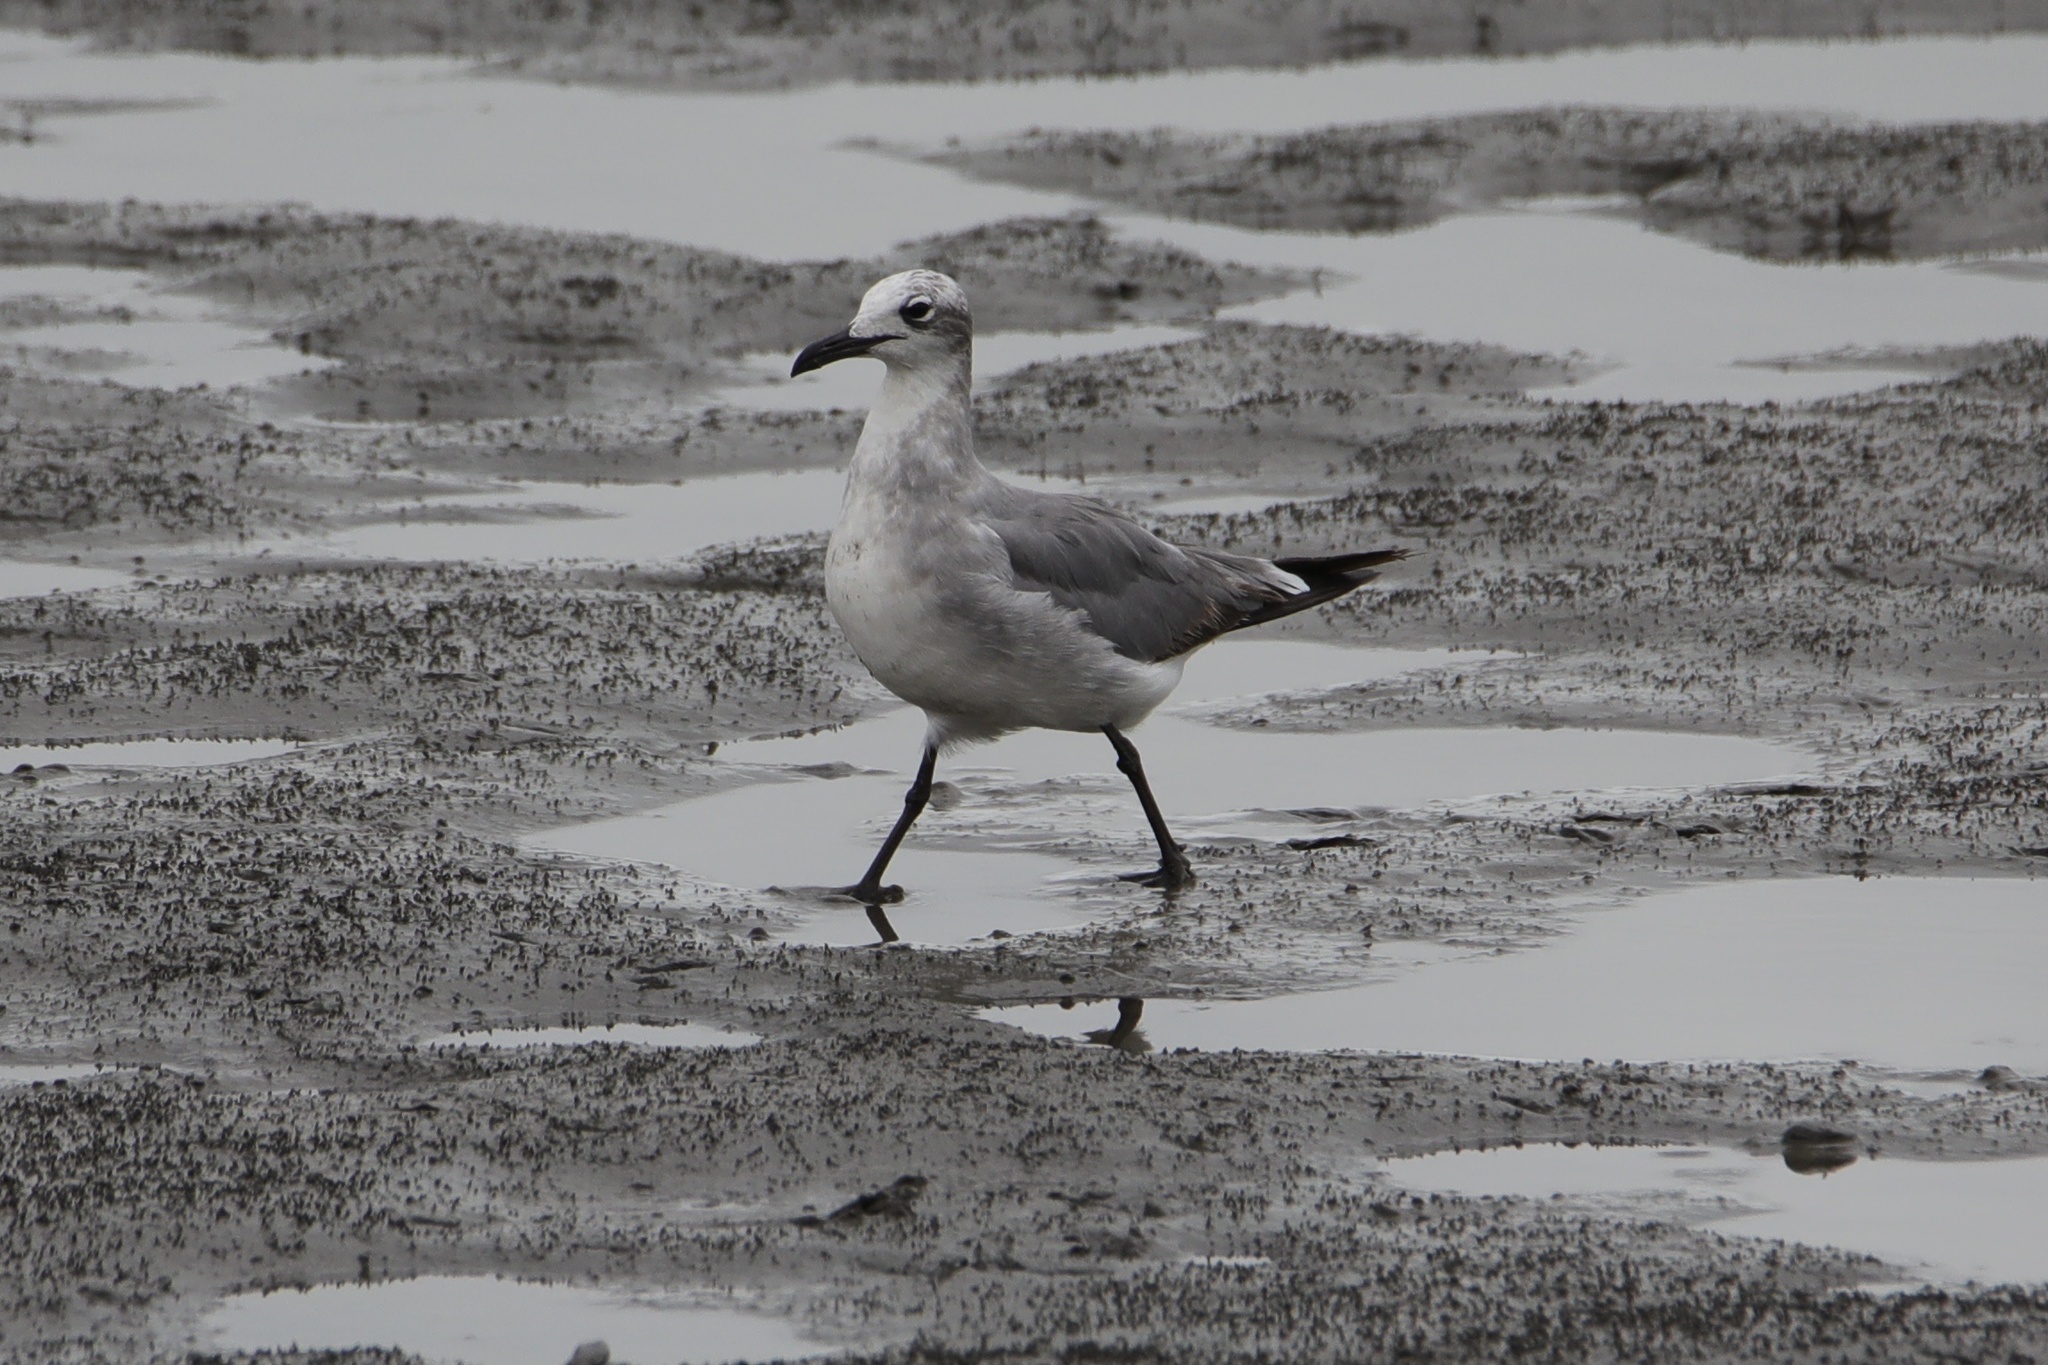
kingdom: Animalia
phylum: Chordata
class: Aves
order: Charadriiformes
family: Laridae
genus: Leucophaeus
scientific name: Leucophaeus atricilla
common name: Laughing gull
